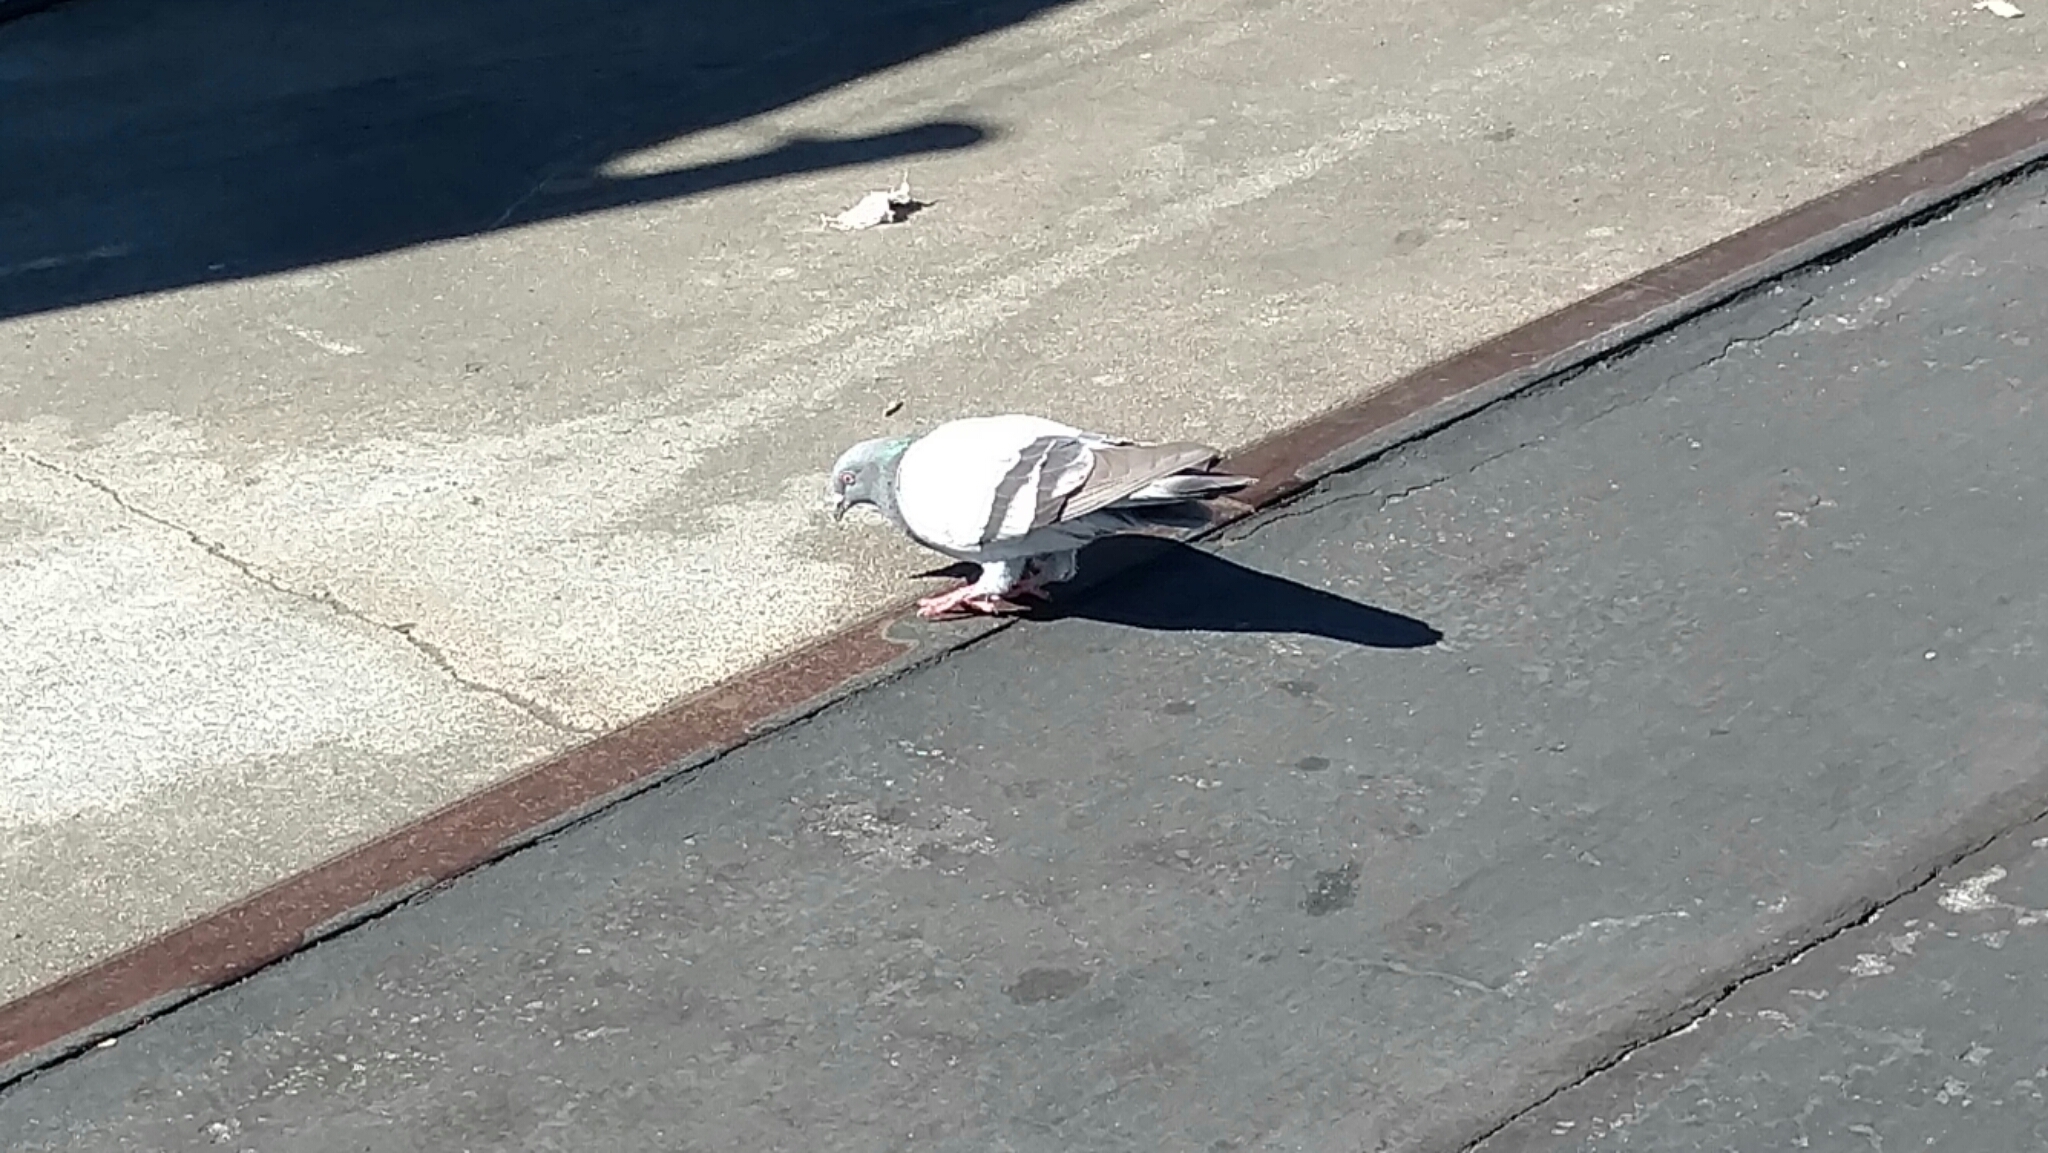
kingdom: Animalia
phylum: Chordata
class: Aves
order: Columbiformes
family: Columbidae
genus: Columba
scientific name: Columba livia
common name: Rock pigeon
